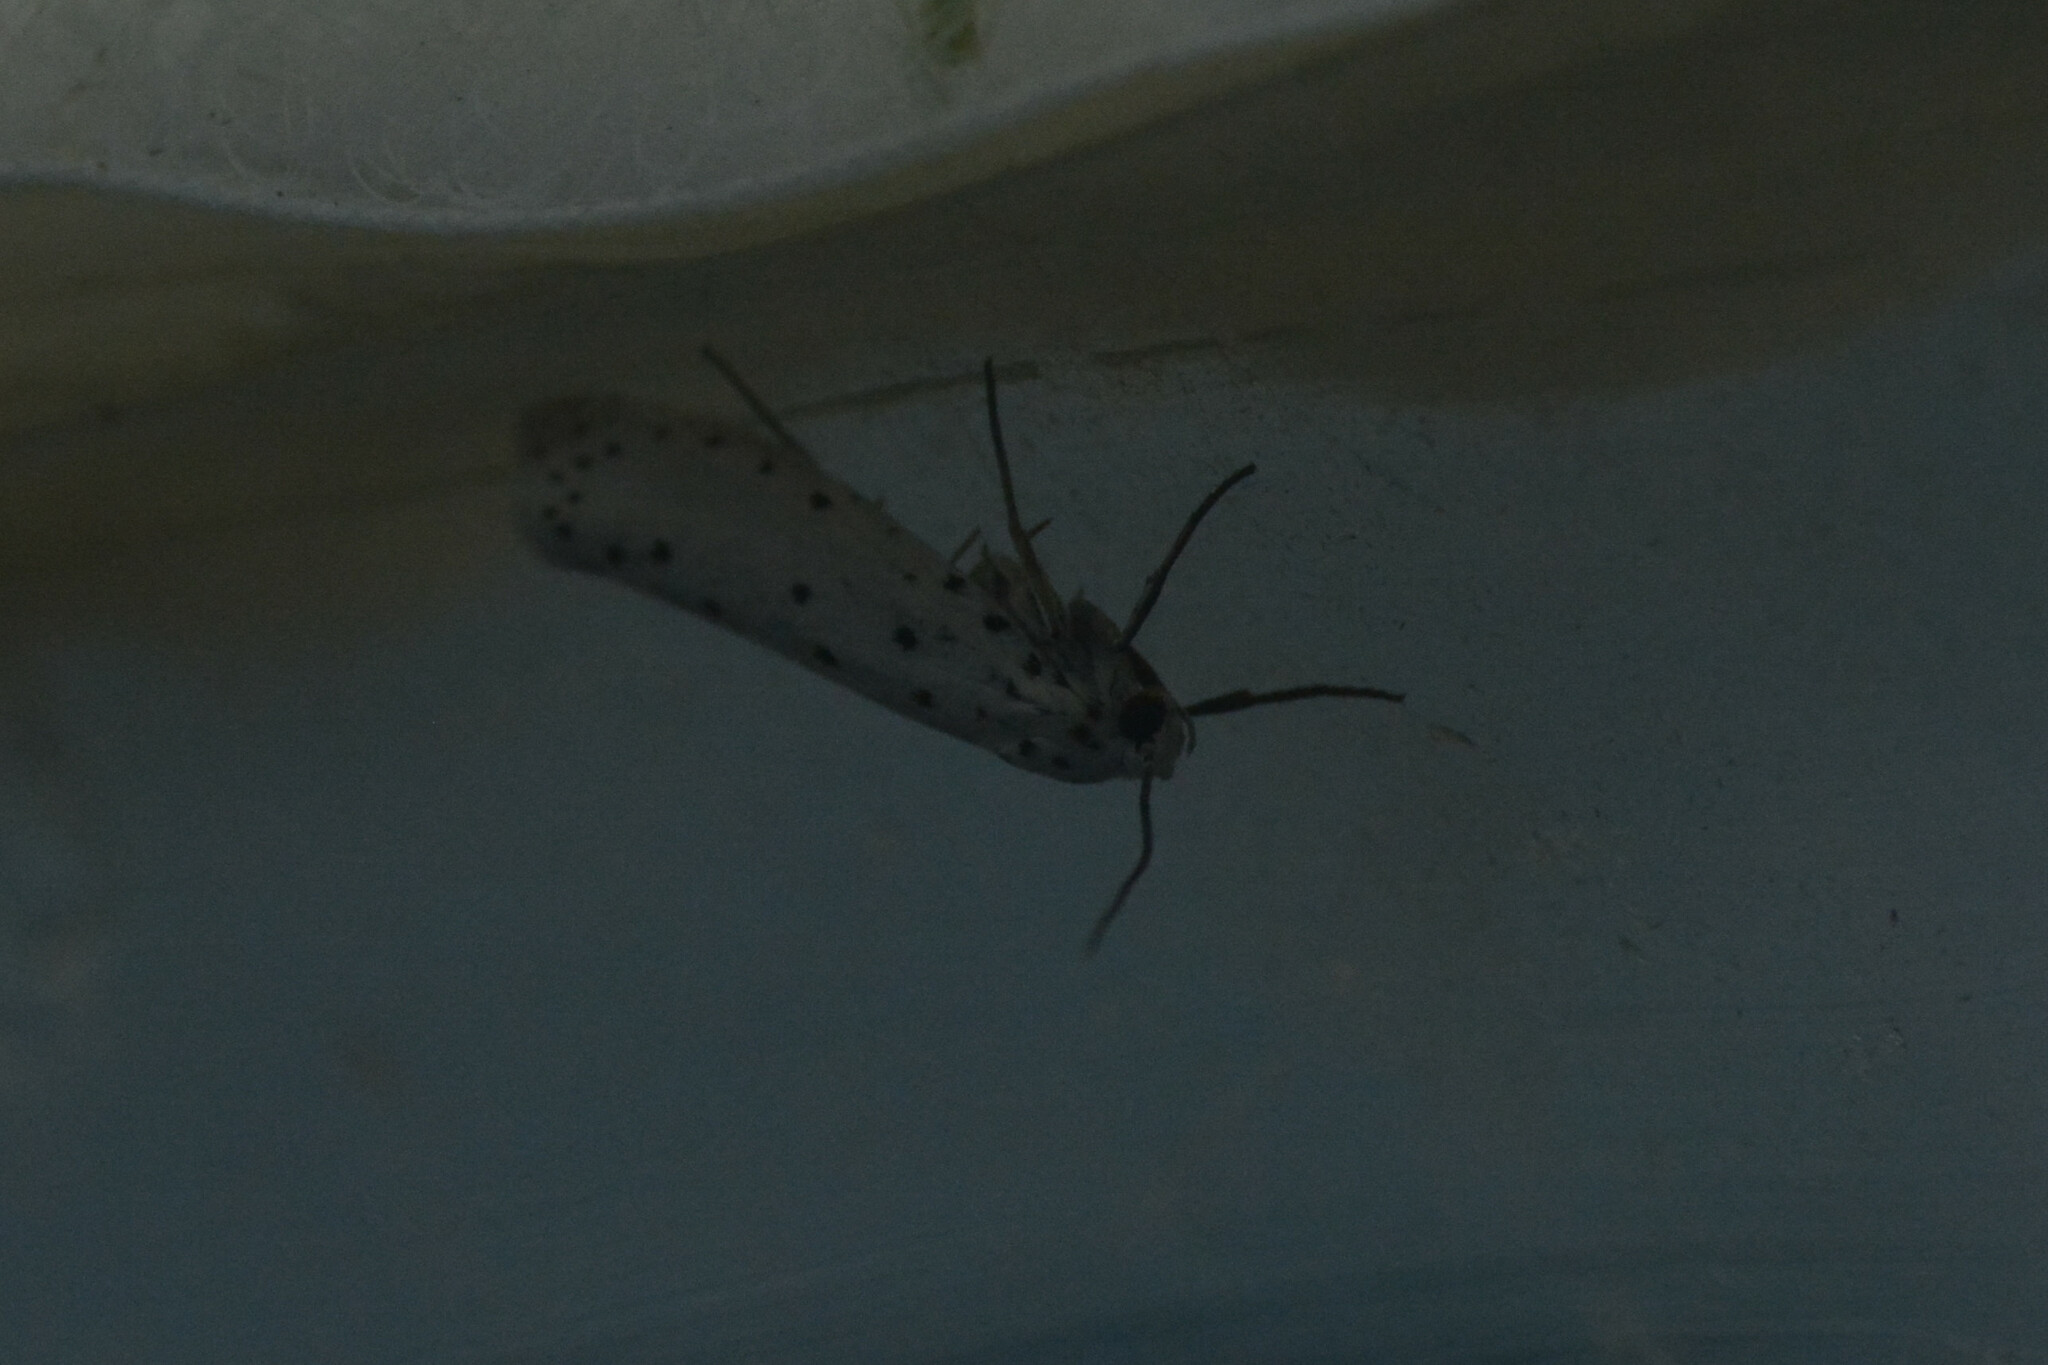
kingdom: Animalia
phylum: Arthropoda
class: Insecta
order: Lepidoptera
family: Yponomeutidae
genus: Yponomeuta
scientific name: Yponomeuta
